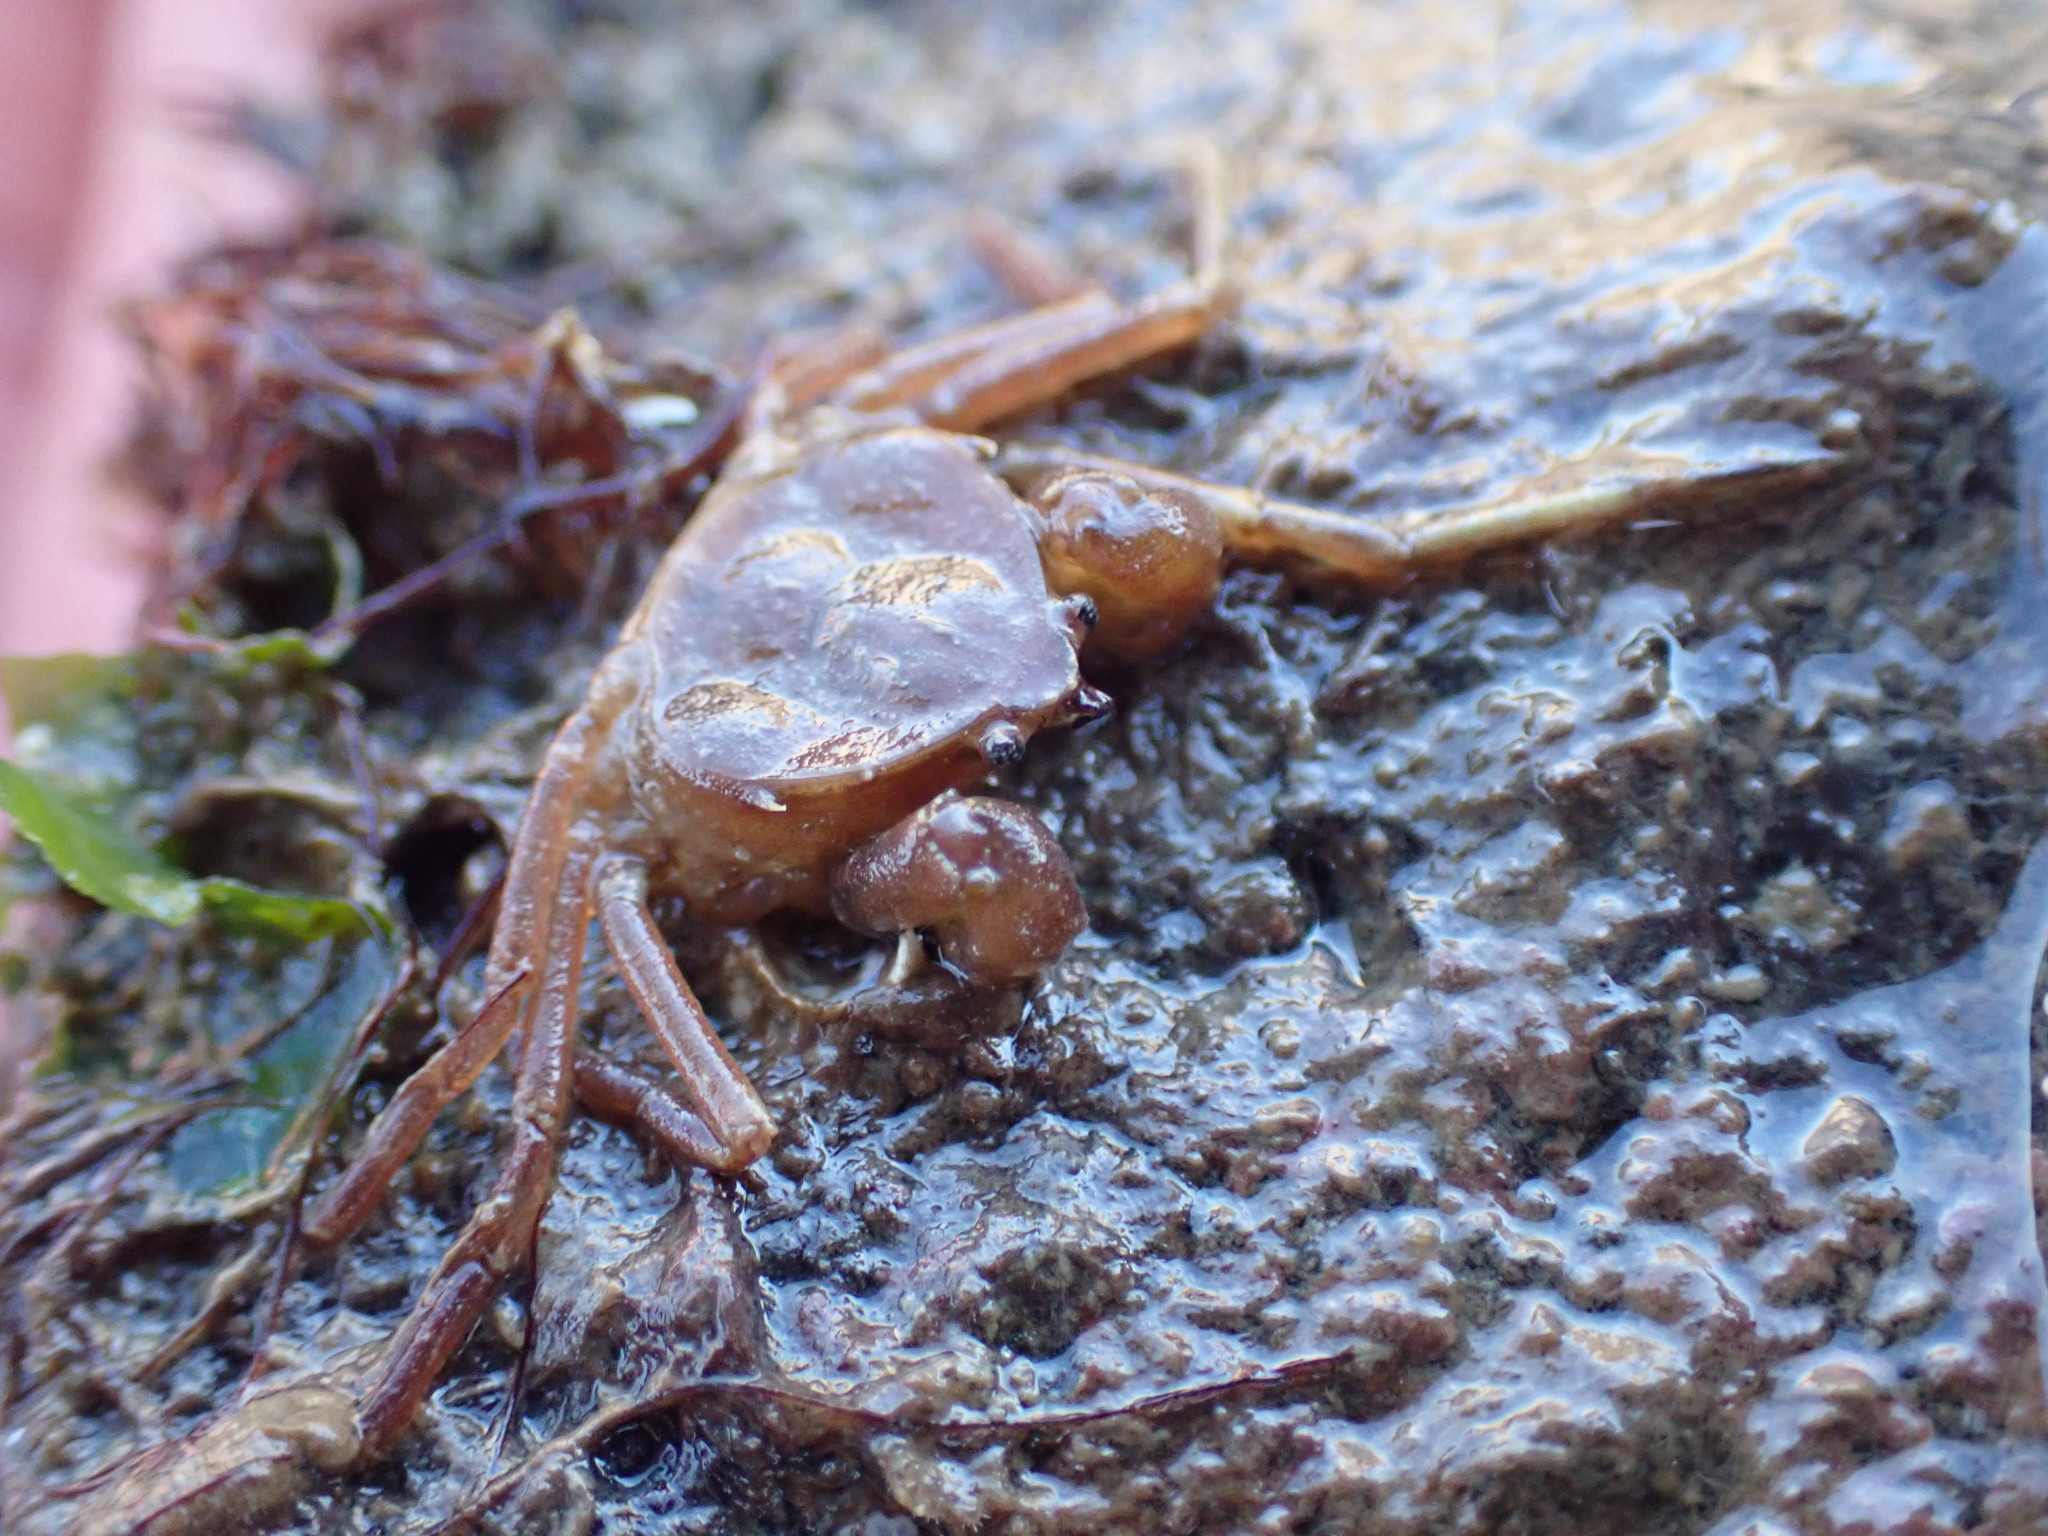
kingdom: Animalia
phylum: Arthropoda
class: Malacostraca
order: Decapoda
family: Hymenosomatidae
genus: Elamena
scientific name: Elamena producta
